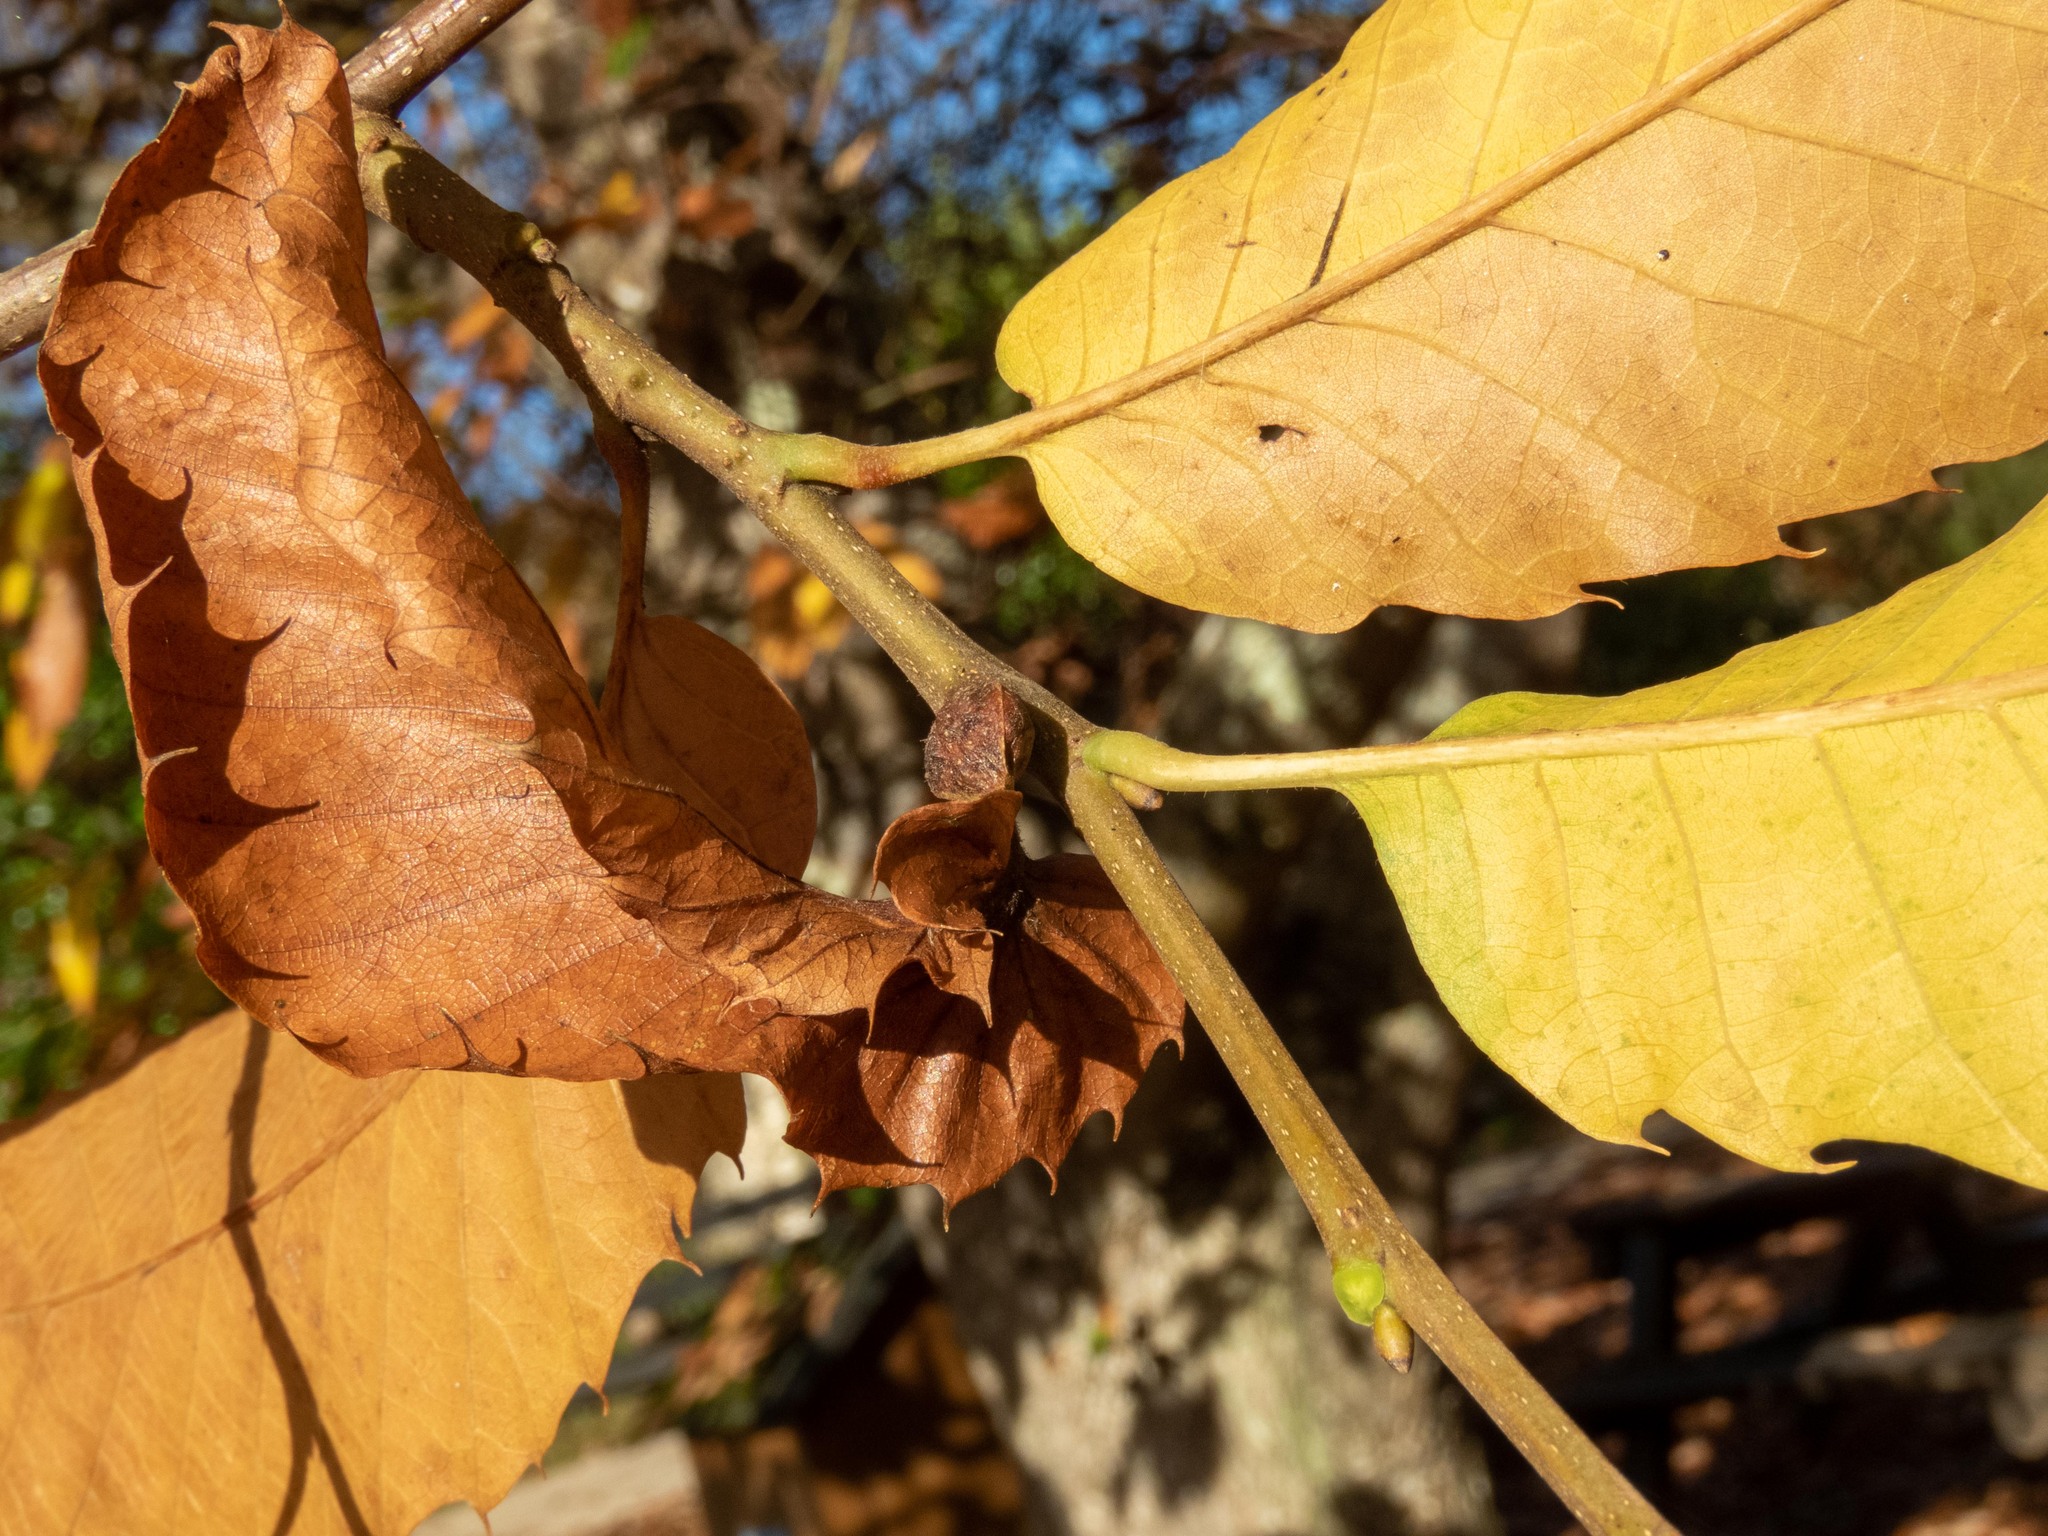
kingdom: Animalia
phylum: Arthropoda
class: Insecta
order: Hymenoptera
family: Cynipidae
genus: Dryocosmus
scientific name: Dryocosmus kuriphilus
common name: Asian chestnut gall wasp
